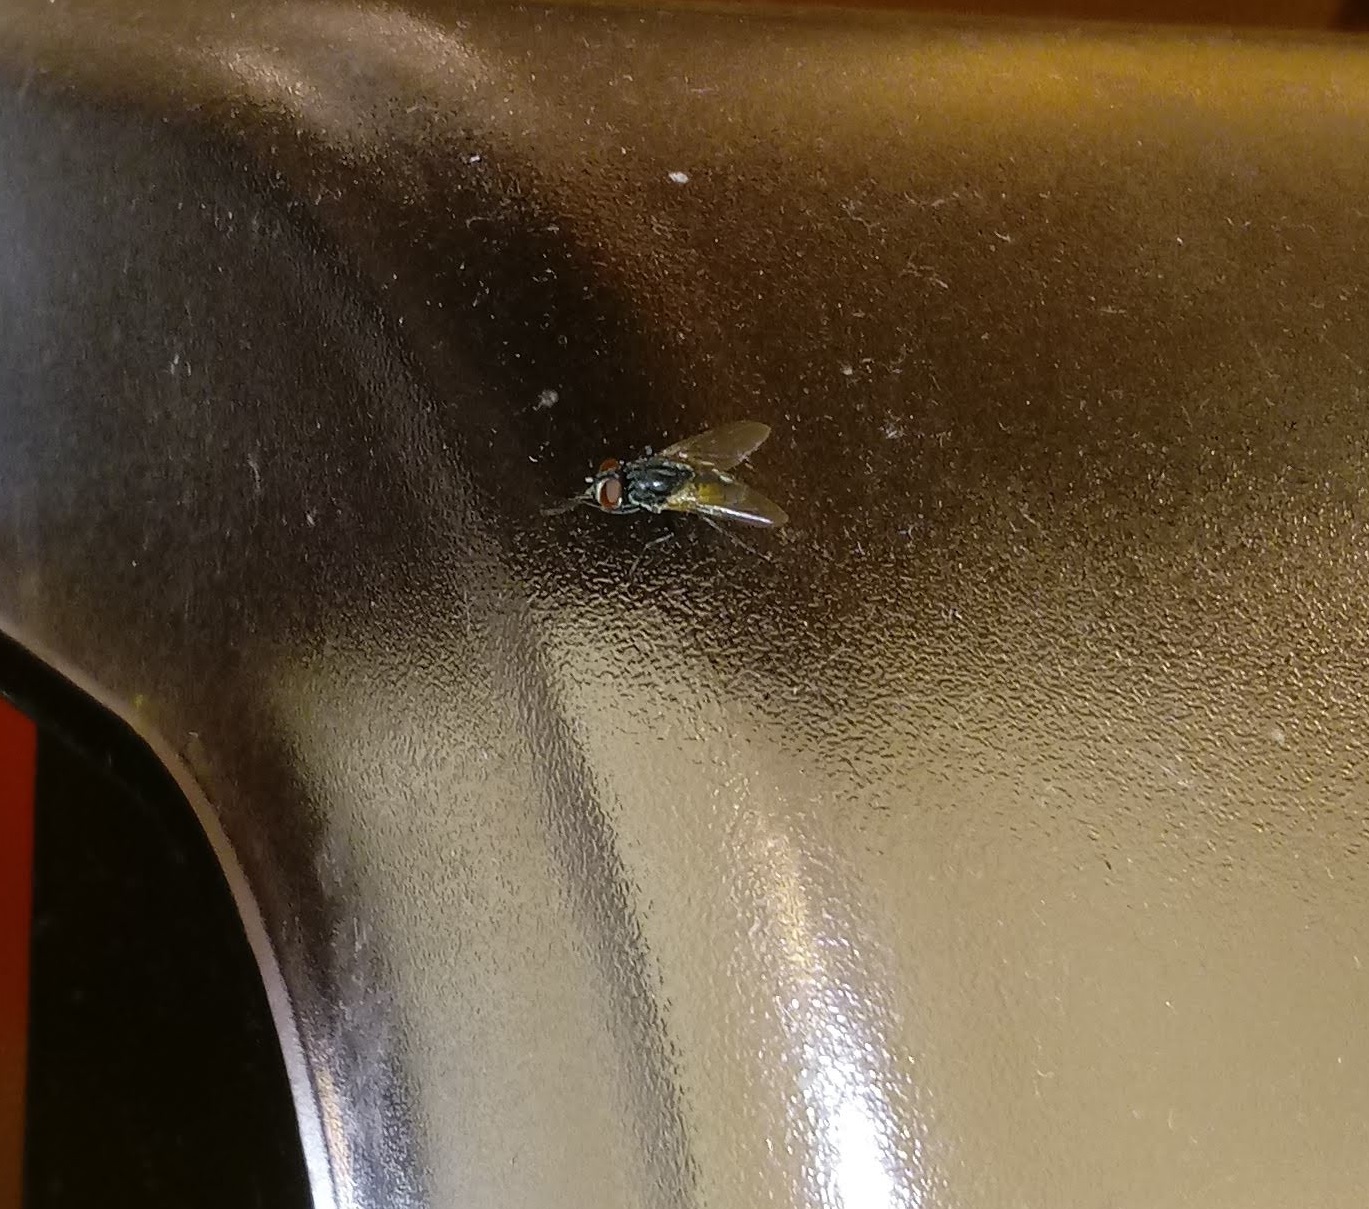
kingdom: Animalia
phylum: Arthropoda
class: Insecta
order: Diptera
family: Muscidae
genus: Musca
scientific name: Musca domestica
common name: House fly
